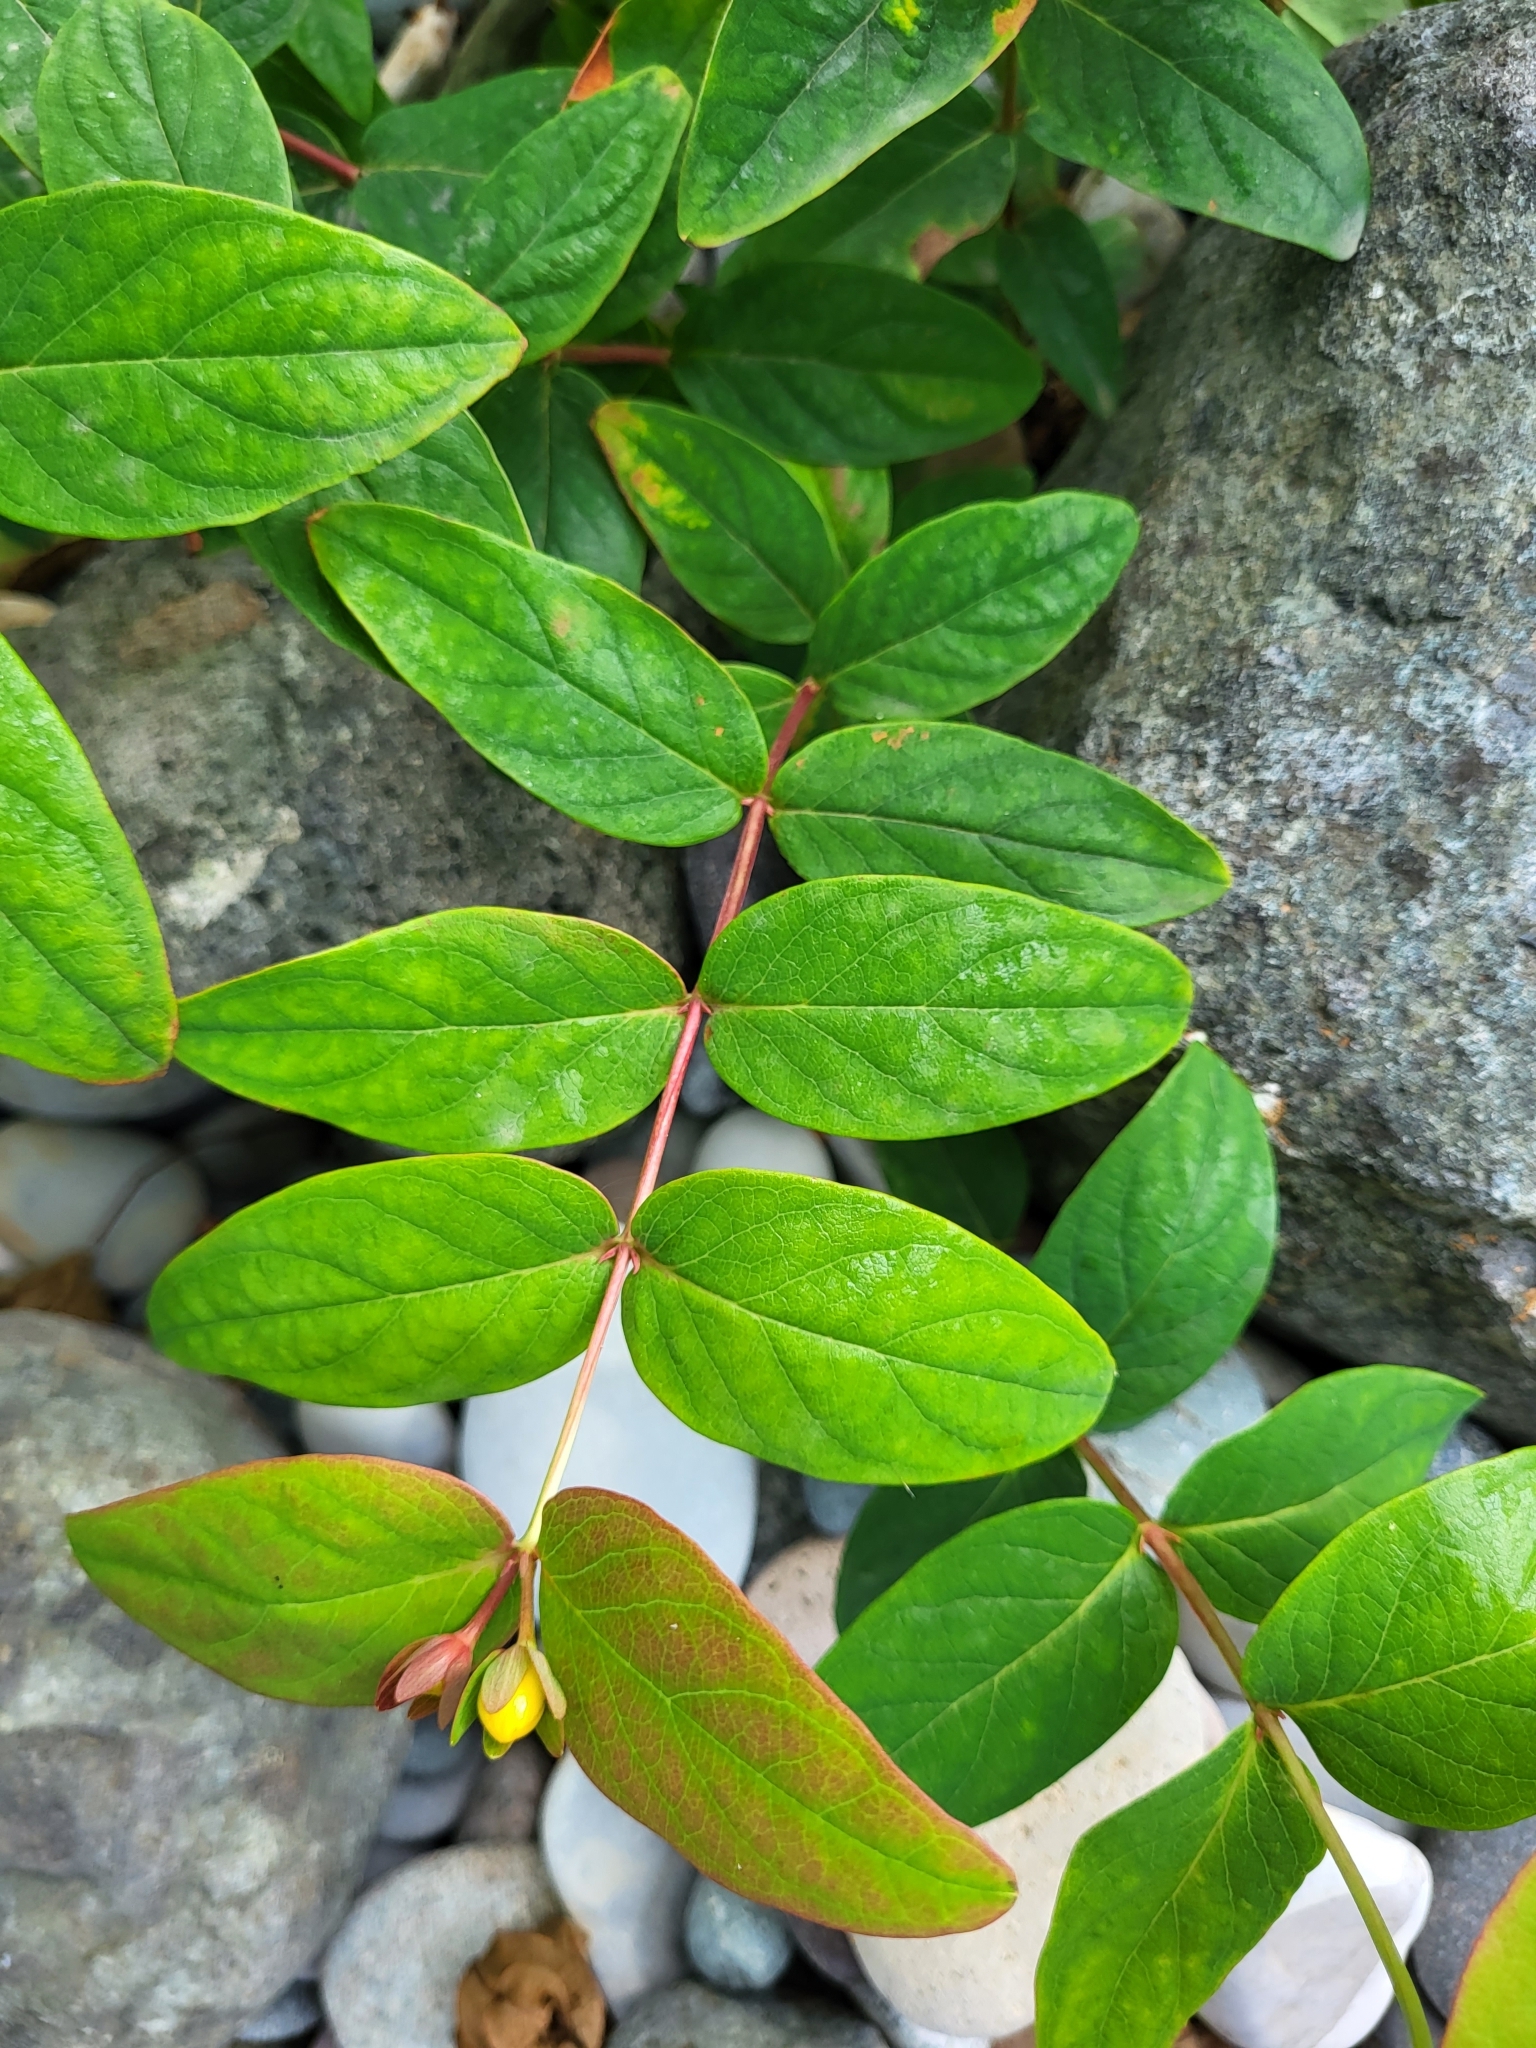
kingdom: Plantae
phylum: Tracheophyta
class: Magnoliopsida
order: Malpighiales
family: Hypericaceae
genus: Hypericum
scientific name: Hypericum androsaemum
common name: Sweet-amber
